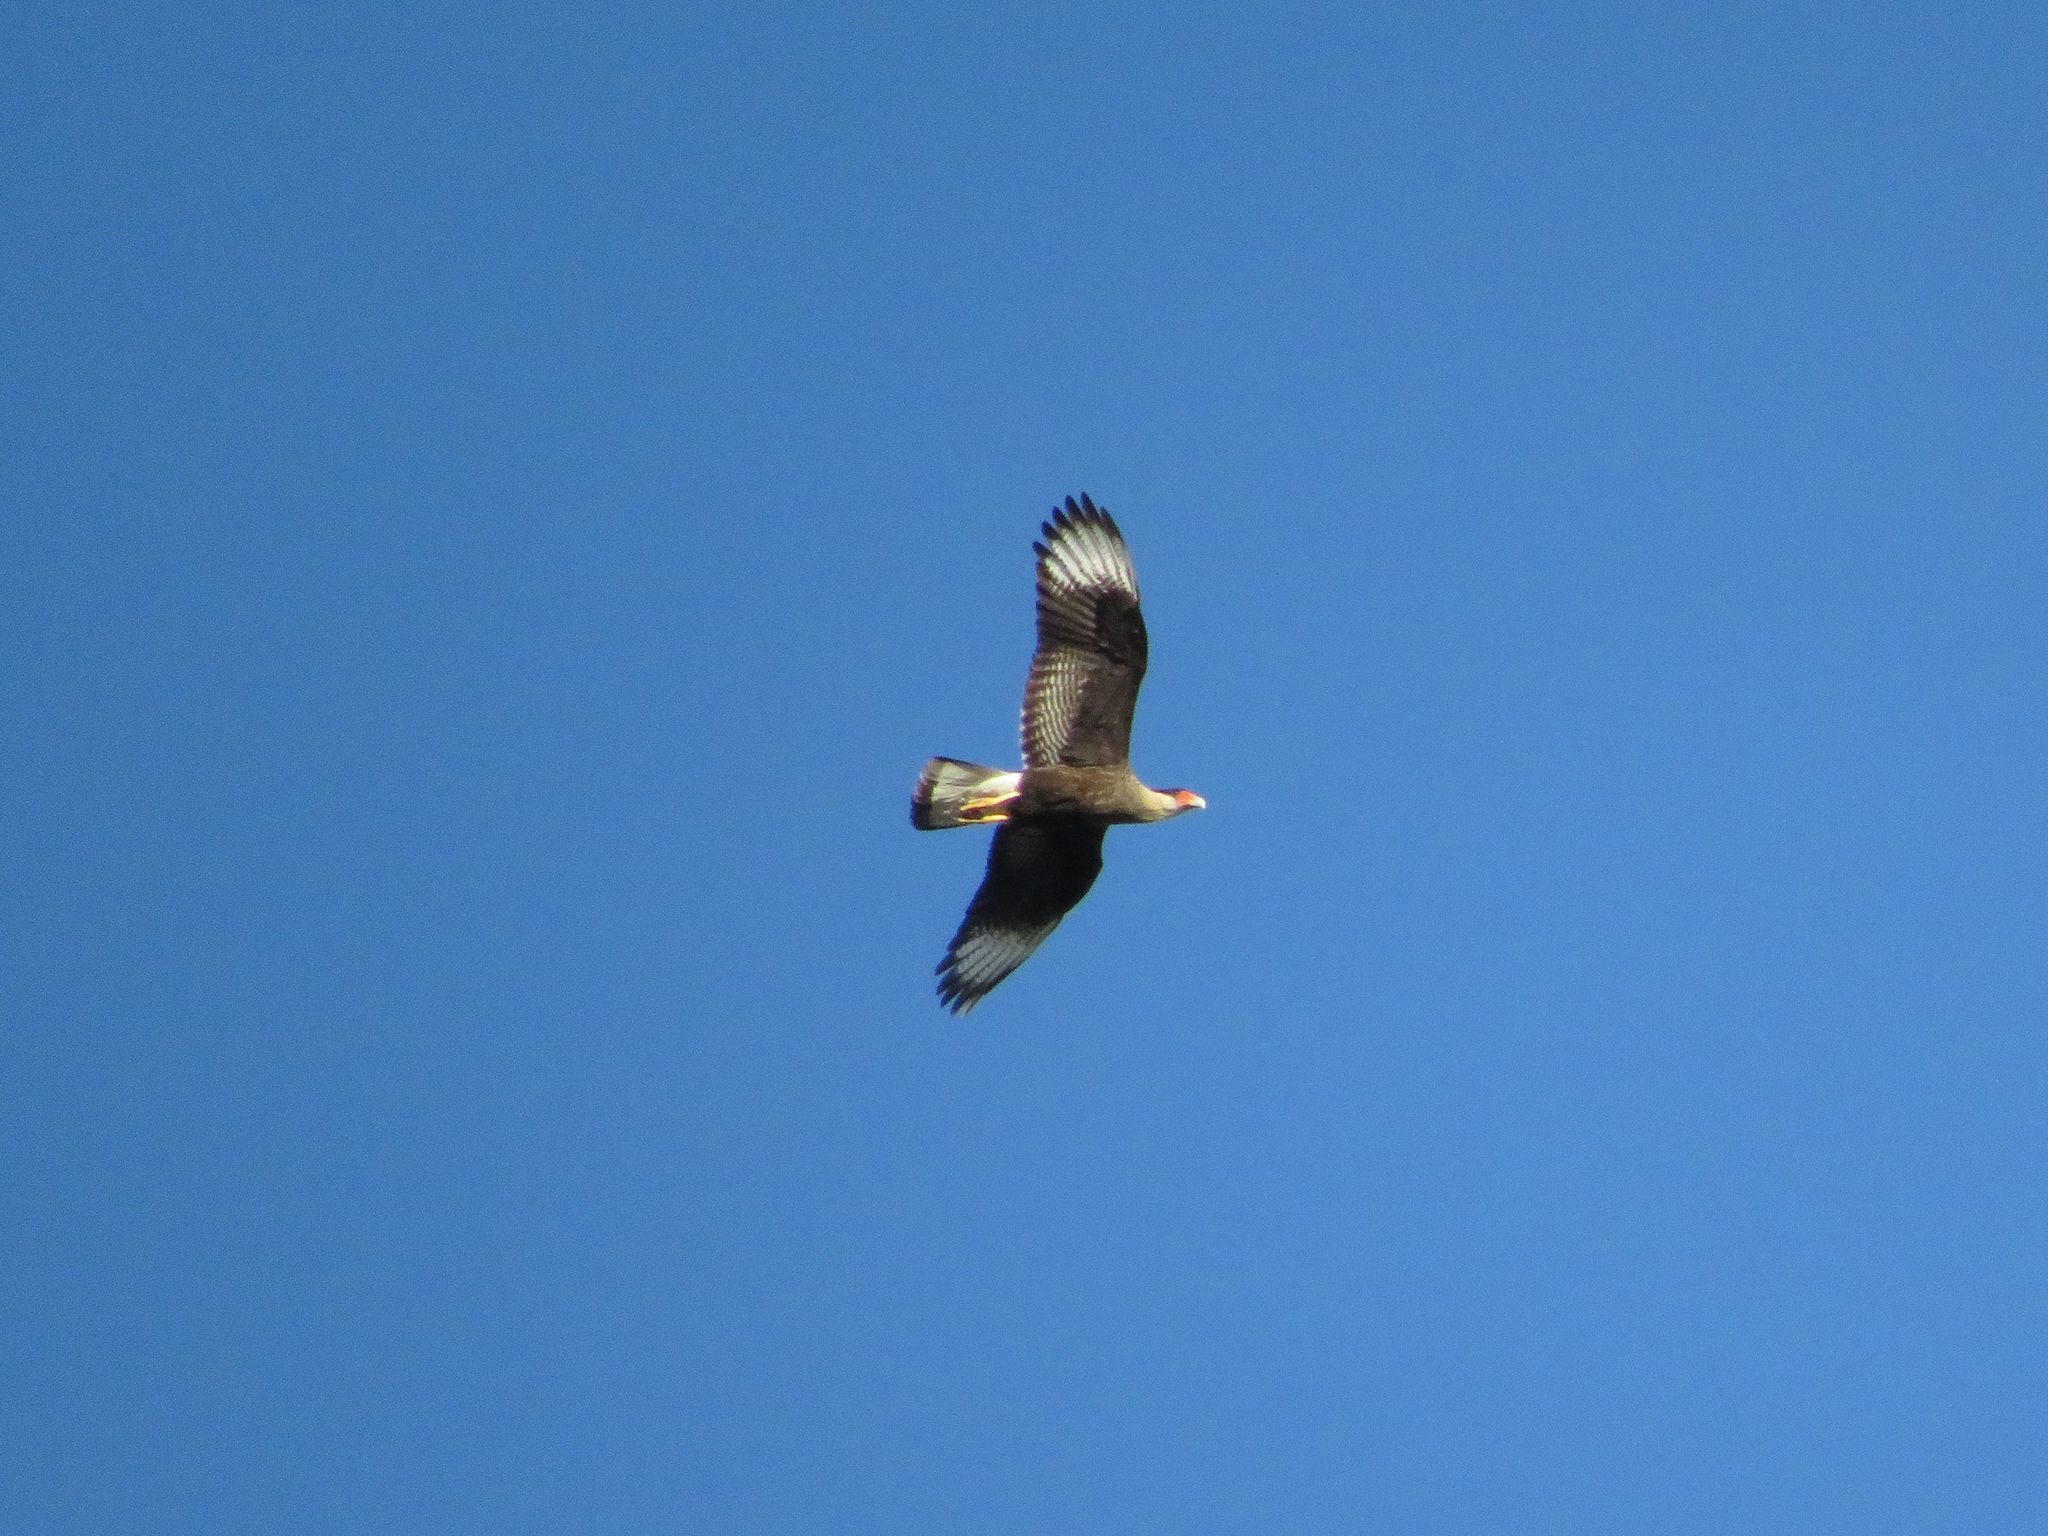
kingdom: Animalia
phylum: Chordata
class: Aves
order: Falconiformes
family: Falconidae
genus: Caracara
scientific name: Caracara plancus
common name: Southern caracara
